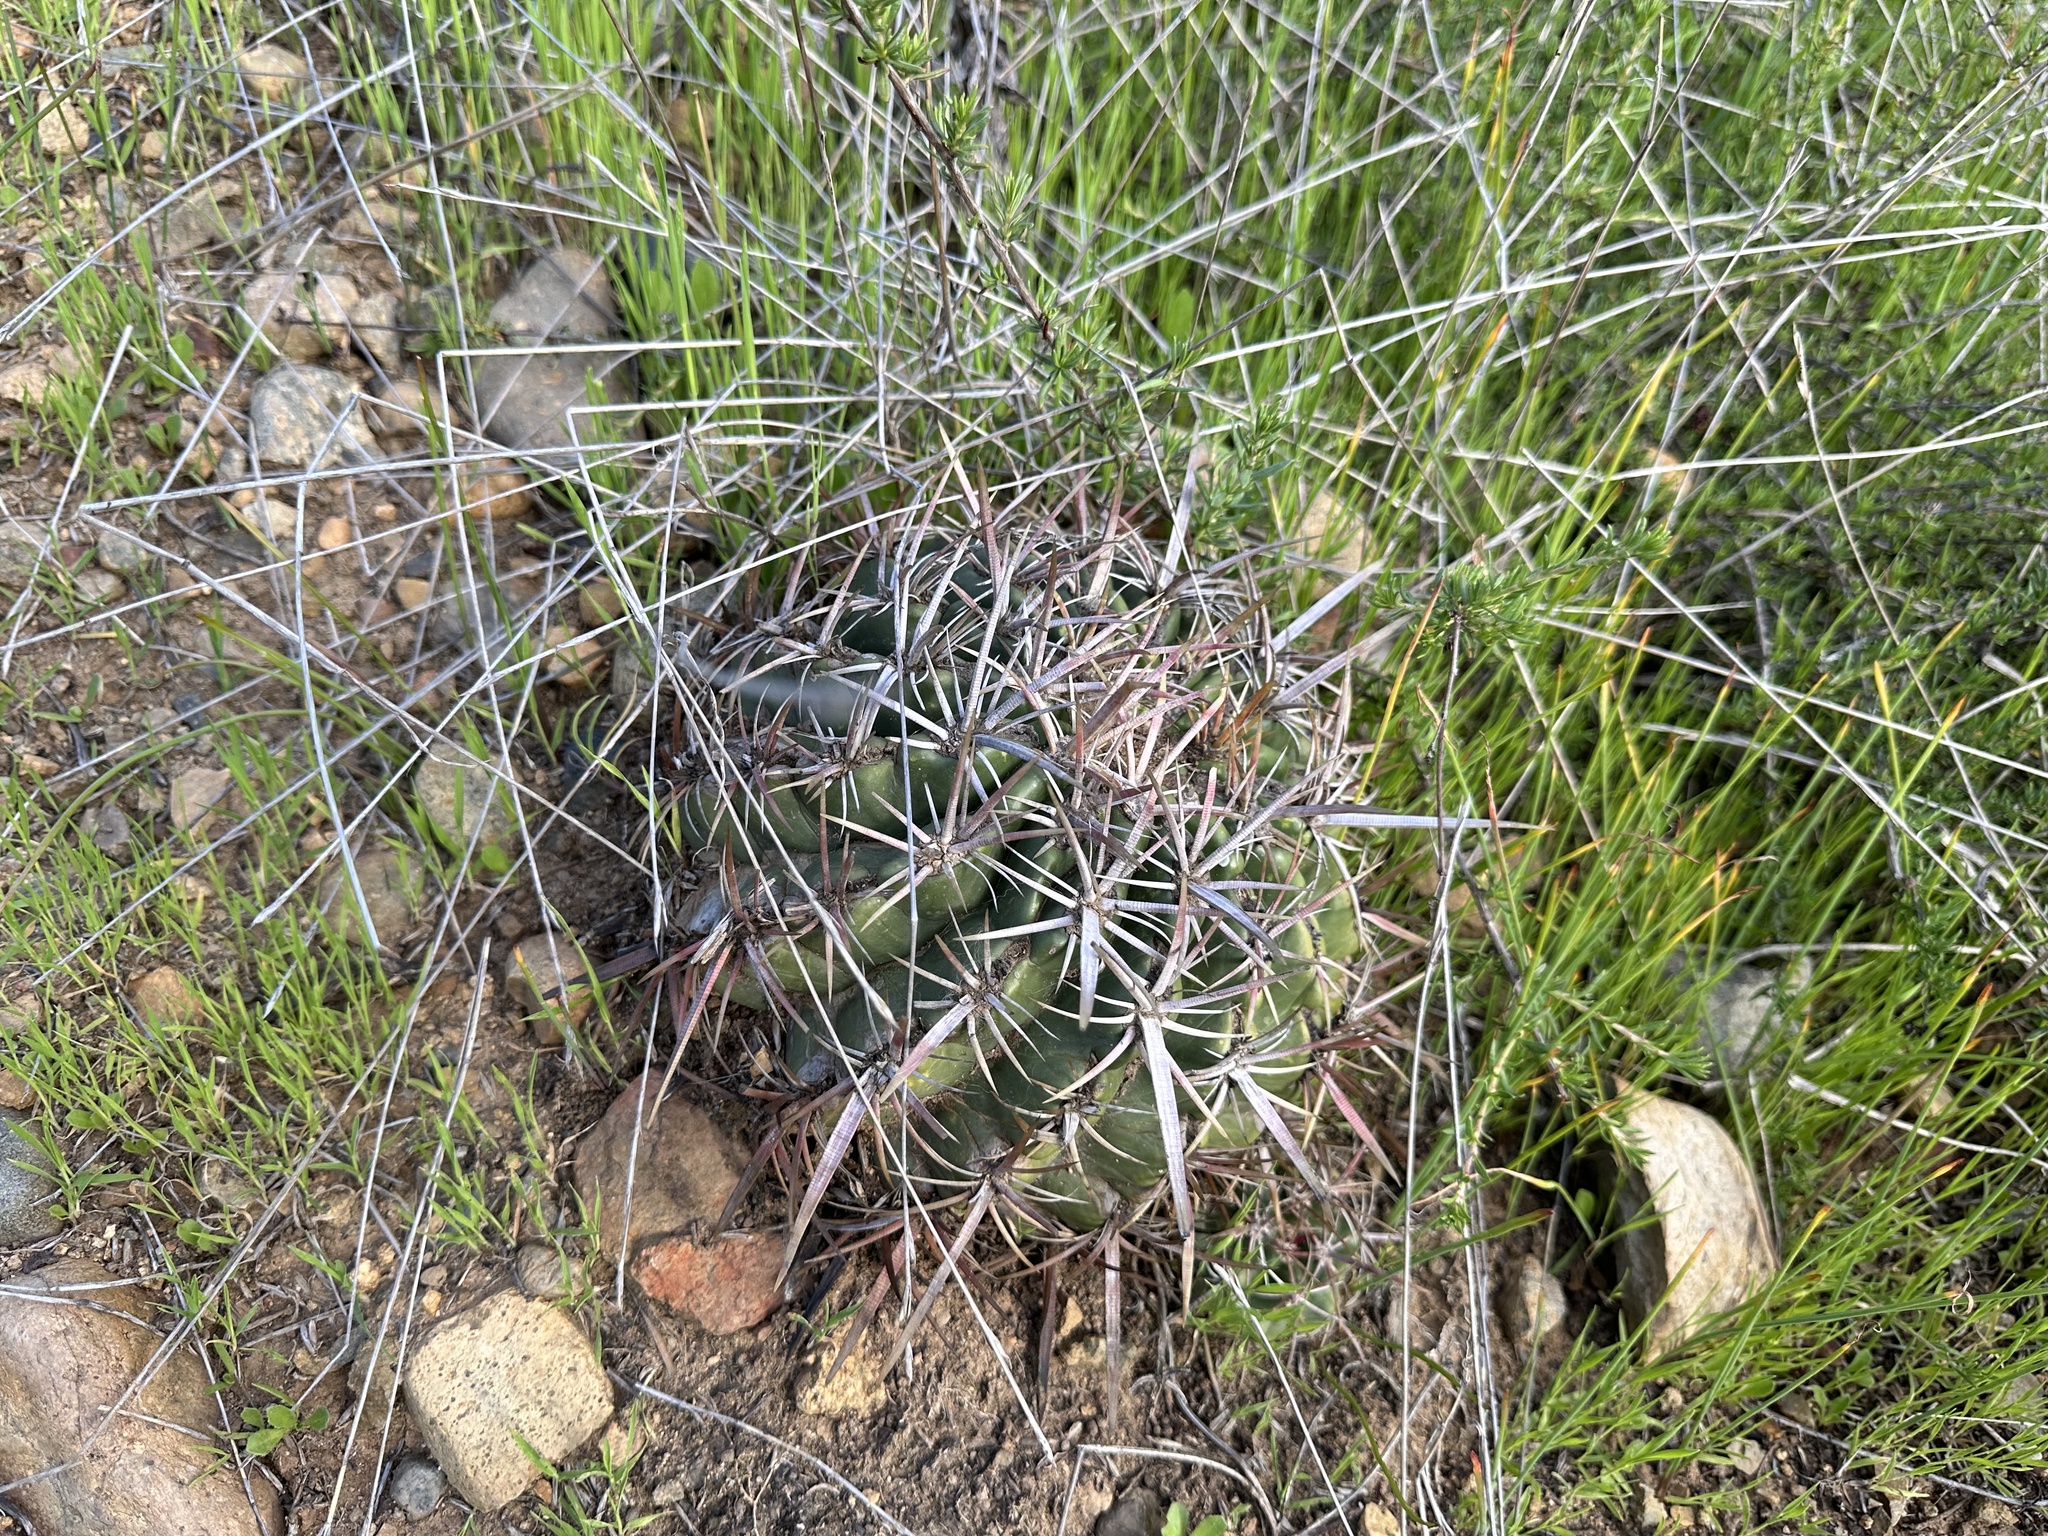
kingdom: Plantae
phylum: Tracheophyta
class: Magnoliopsida
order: Caryophyllales
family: Cactaceae
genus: Ferocactus
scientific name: Ferocactus viridescens
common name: San diego barrel cactus
